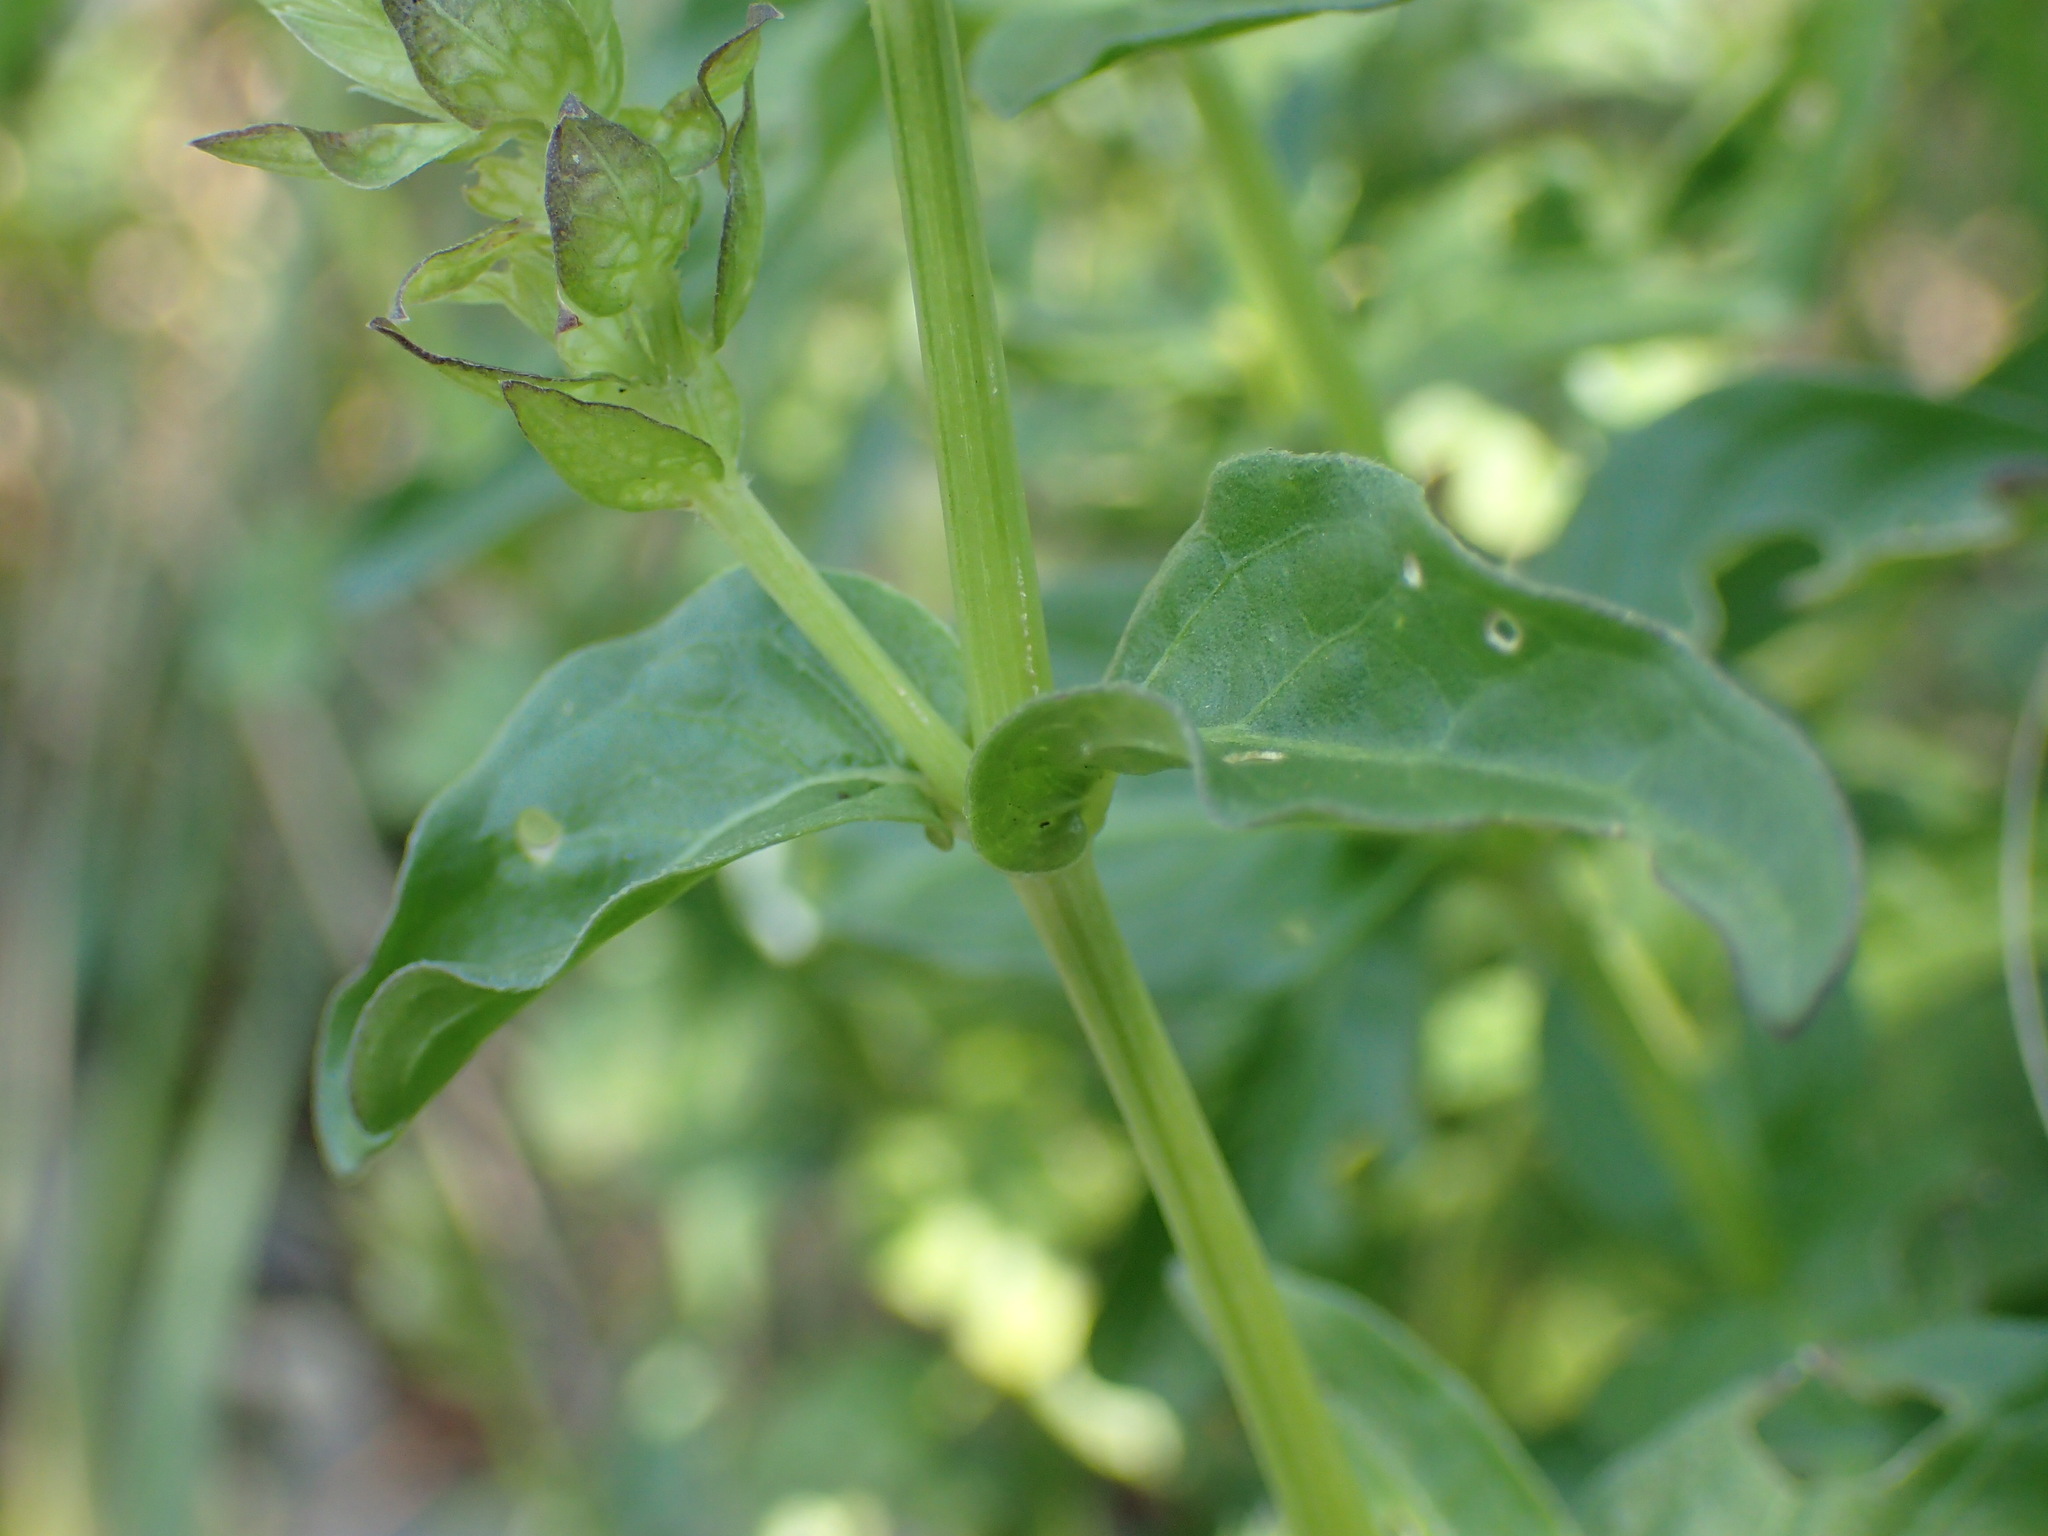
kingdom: Plantae
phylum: Tracheophyta
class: Magnoliopsida
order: Lamiales
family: Acanthaceae
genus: Justicia
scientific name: Justicia betonica
